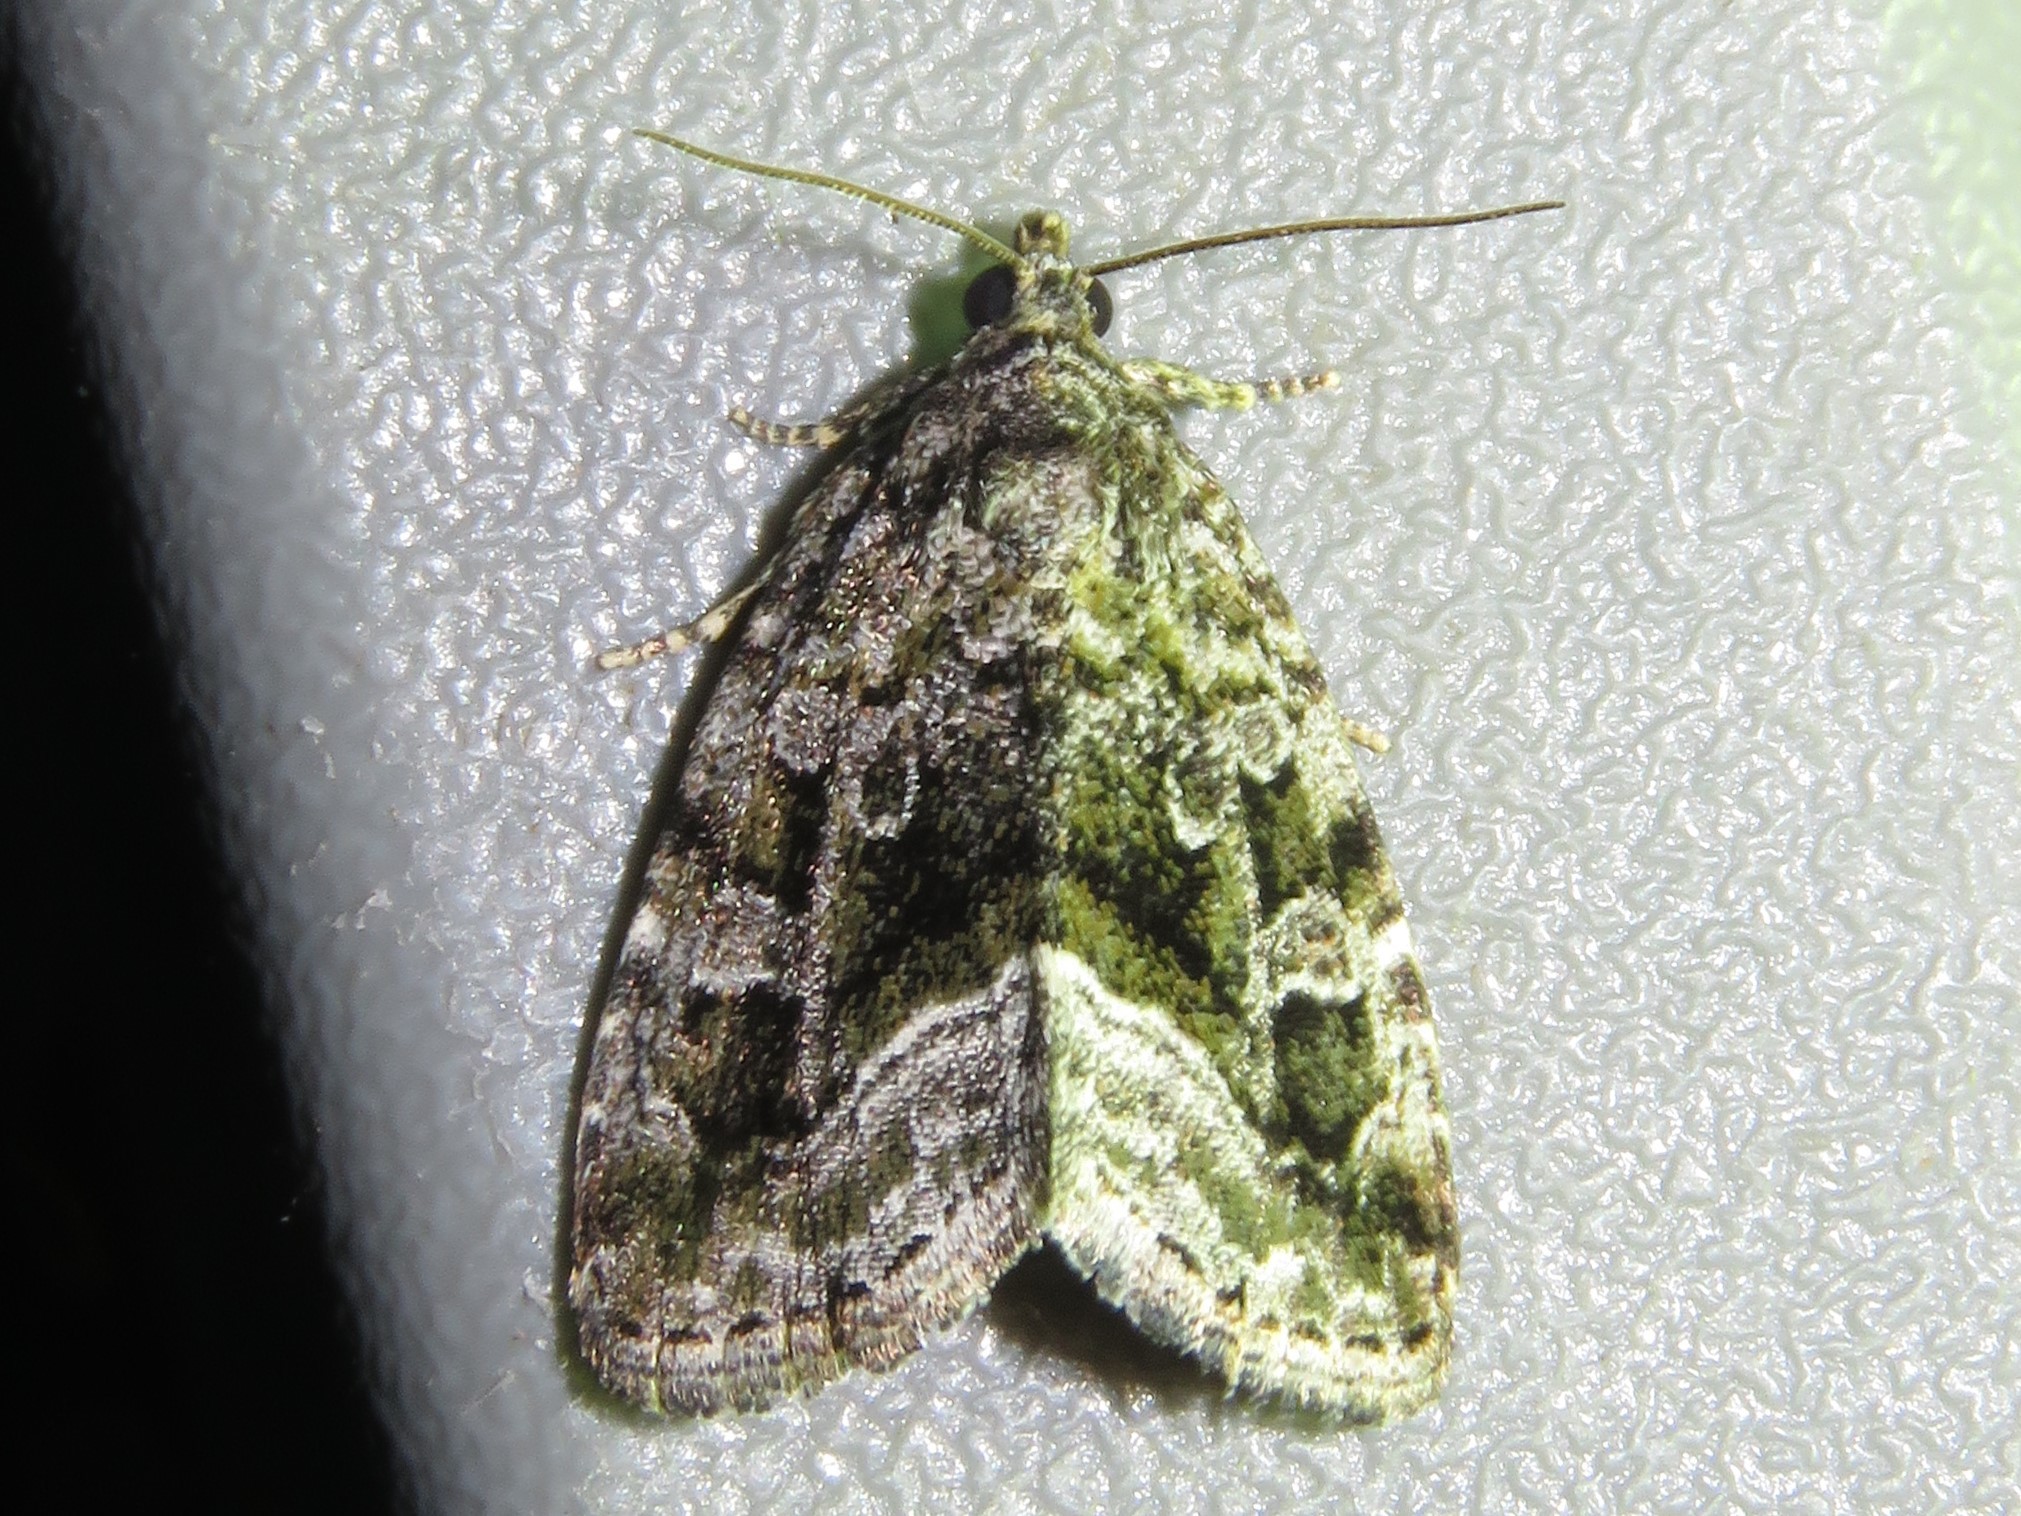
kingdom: Animalia
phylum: Arthropoda
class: Insecta
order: Lepidoptera
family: Noctuidae
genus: Protodeltote
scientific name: Protodeltote muscosula
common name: Large mossy glyph
